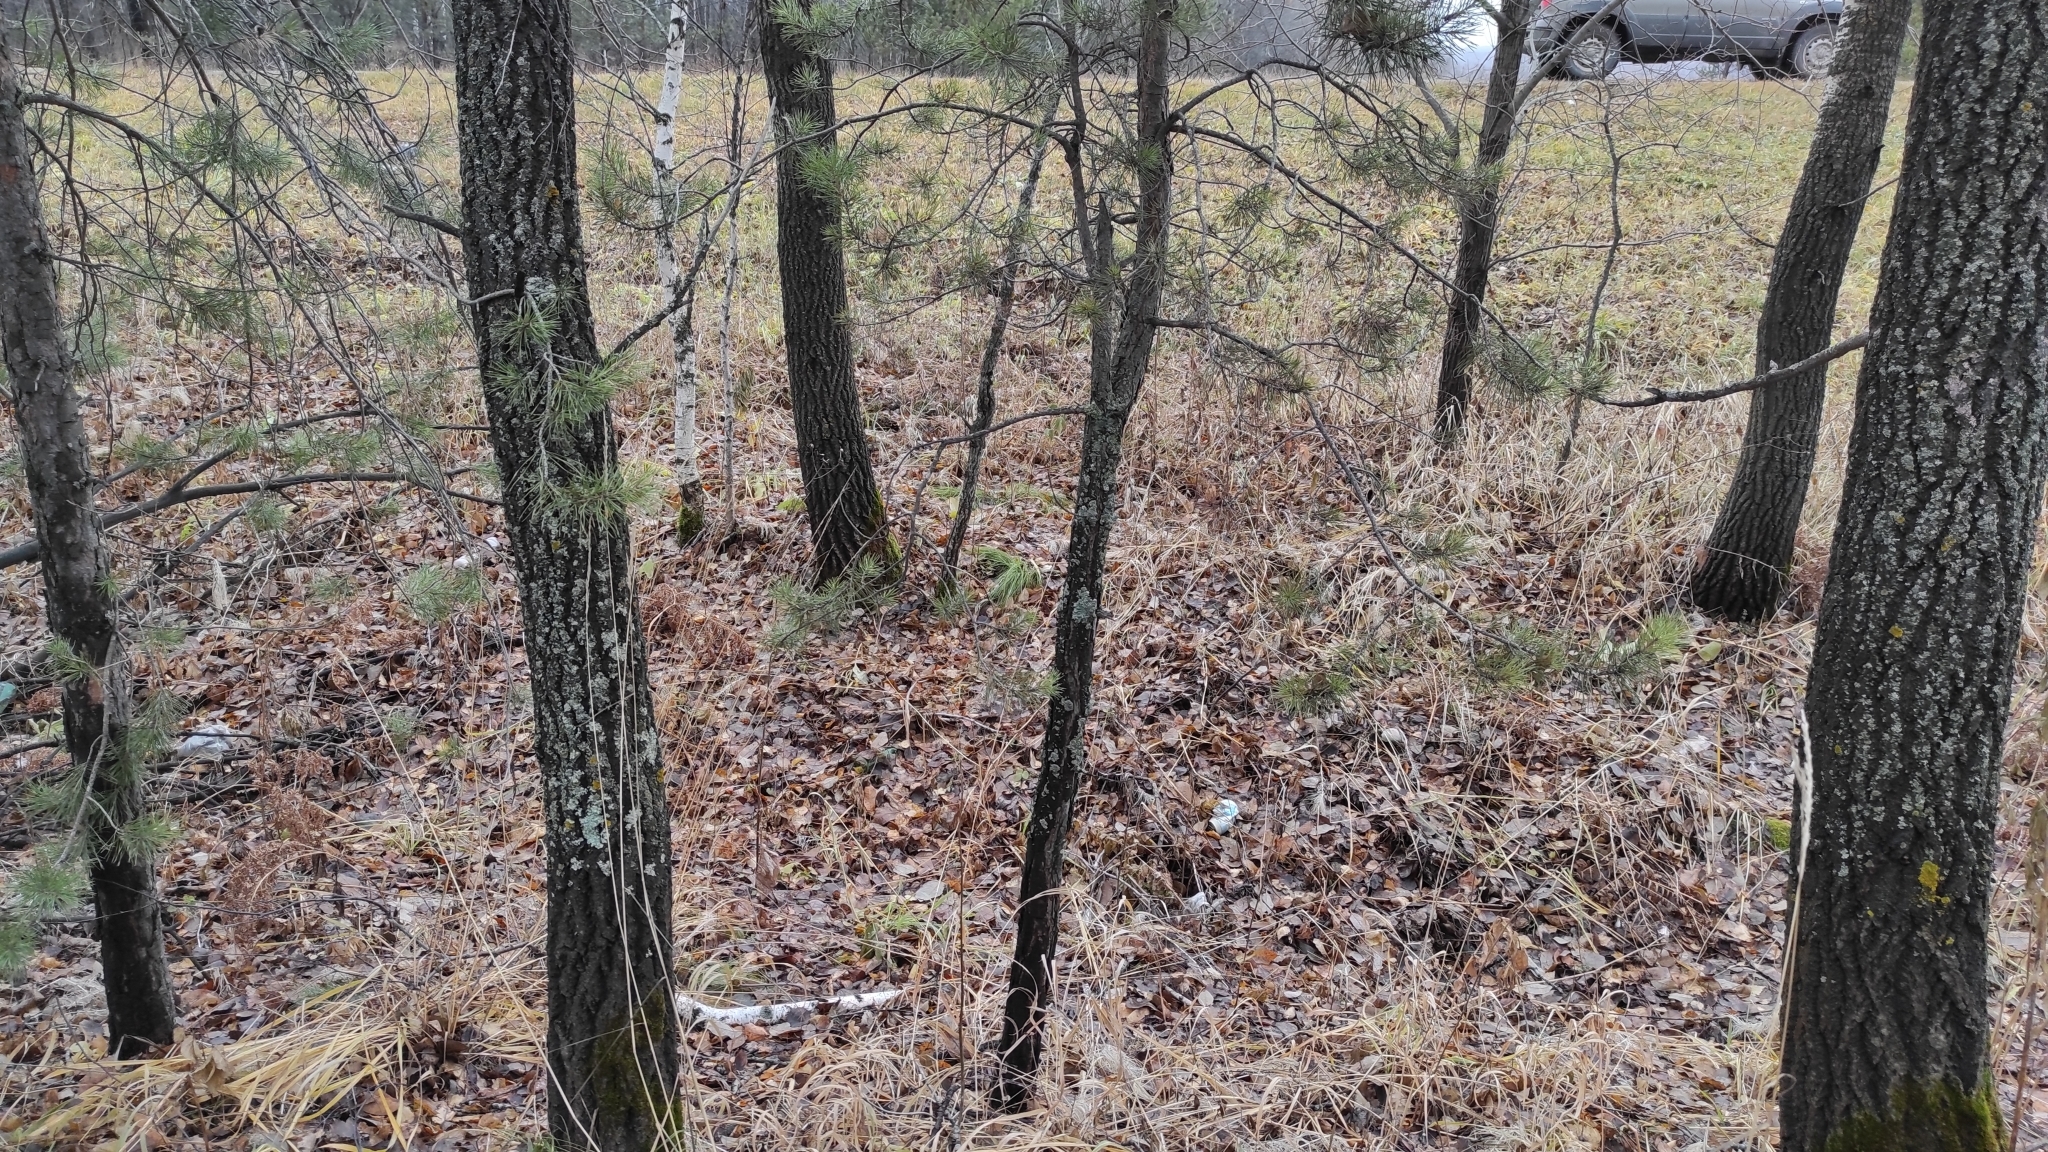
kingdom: Plantae
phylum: Tracheophyta
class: Pinopsida
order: Pinales
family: Pinaceae
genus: Pinus
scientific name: Pinus sylvestris
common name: Scots pine
